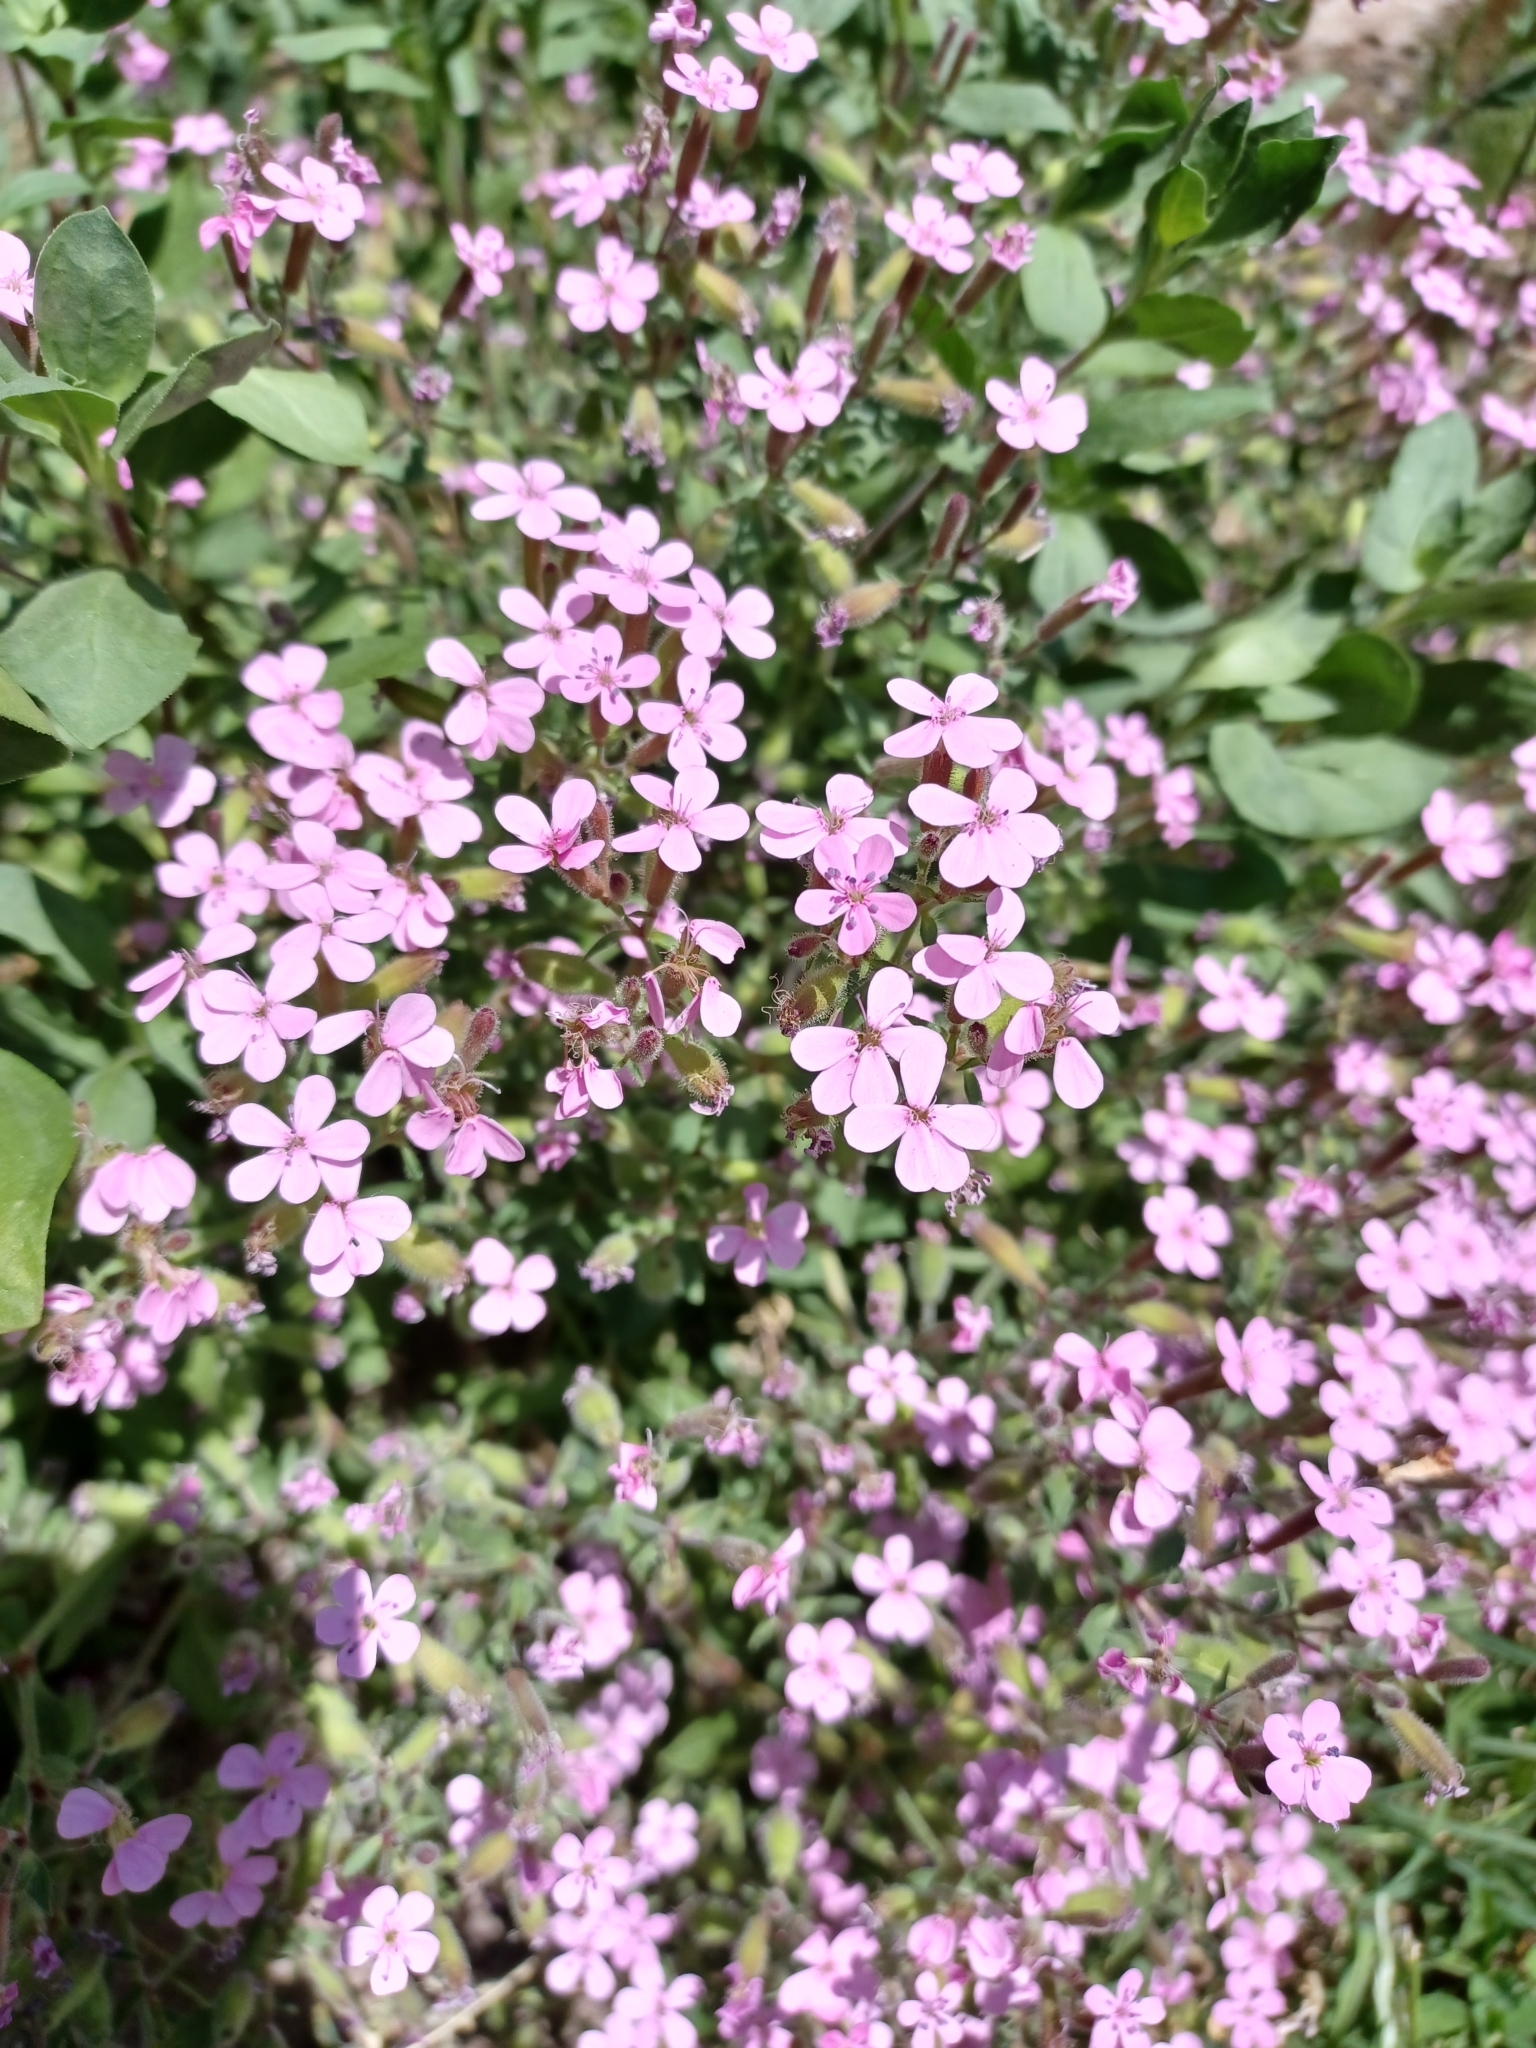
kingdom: Plantae
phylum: Tracheophyta
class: Magnoliopsida
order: Caryophyllales
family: Caryophyllaceae
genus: Saponaria
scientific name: Saponaria ocymoides
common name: Rock soapwort
